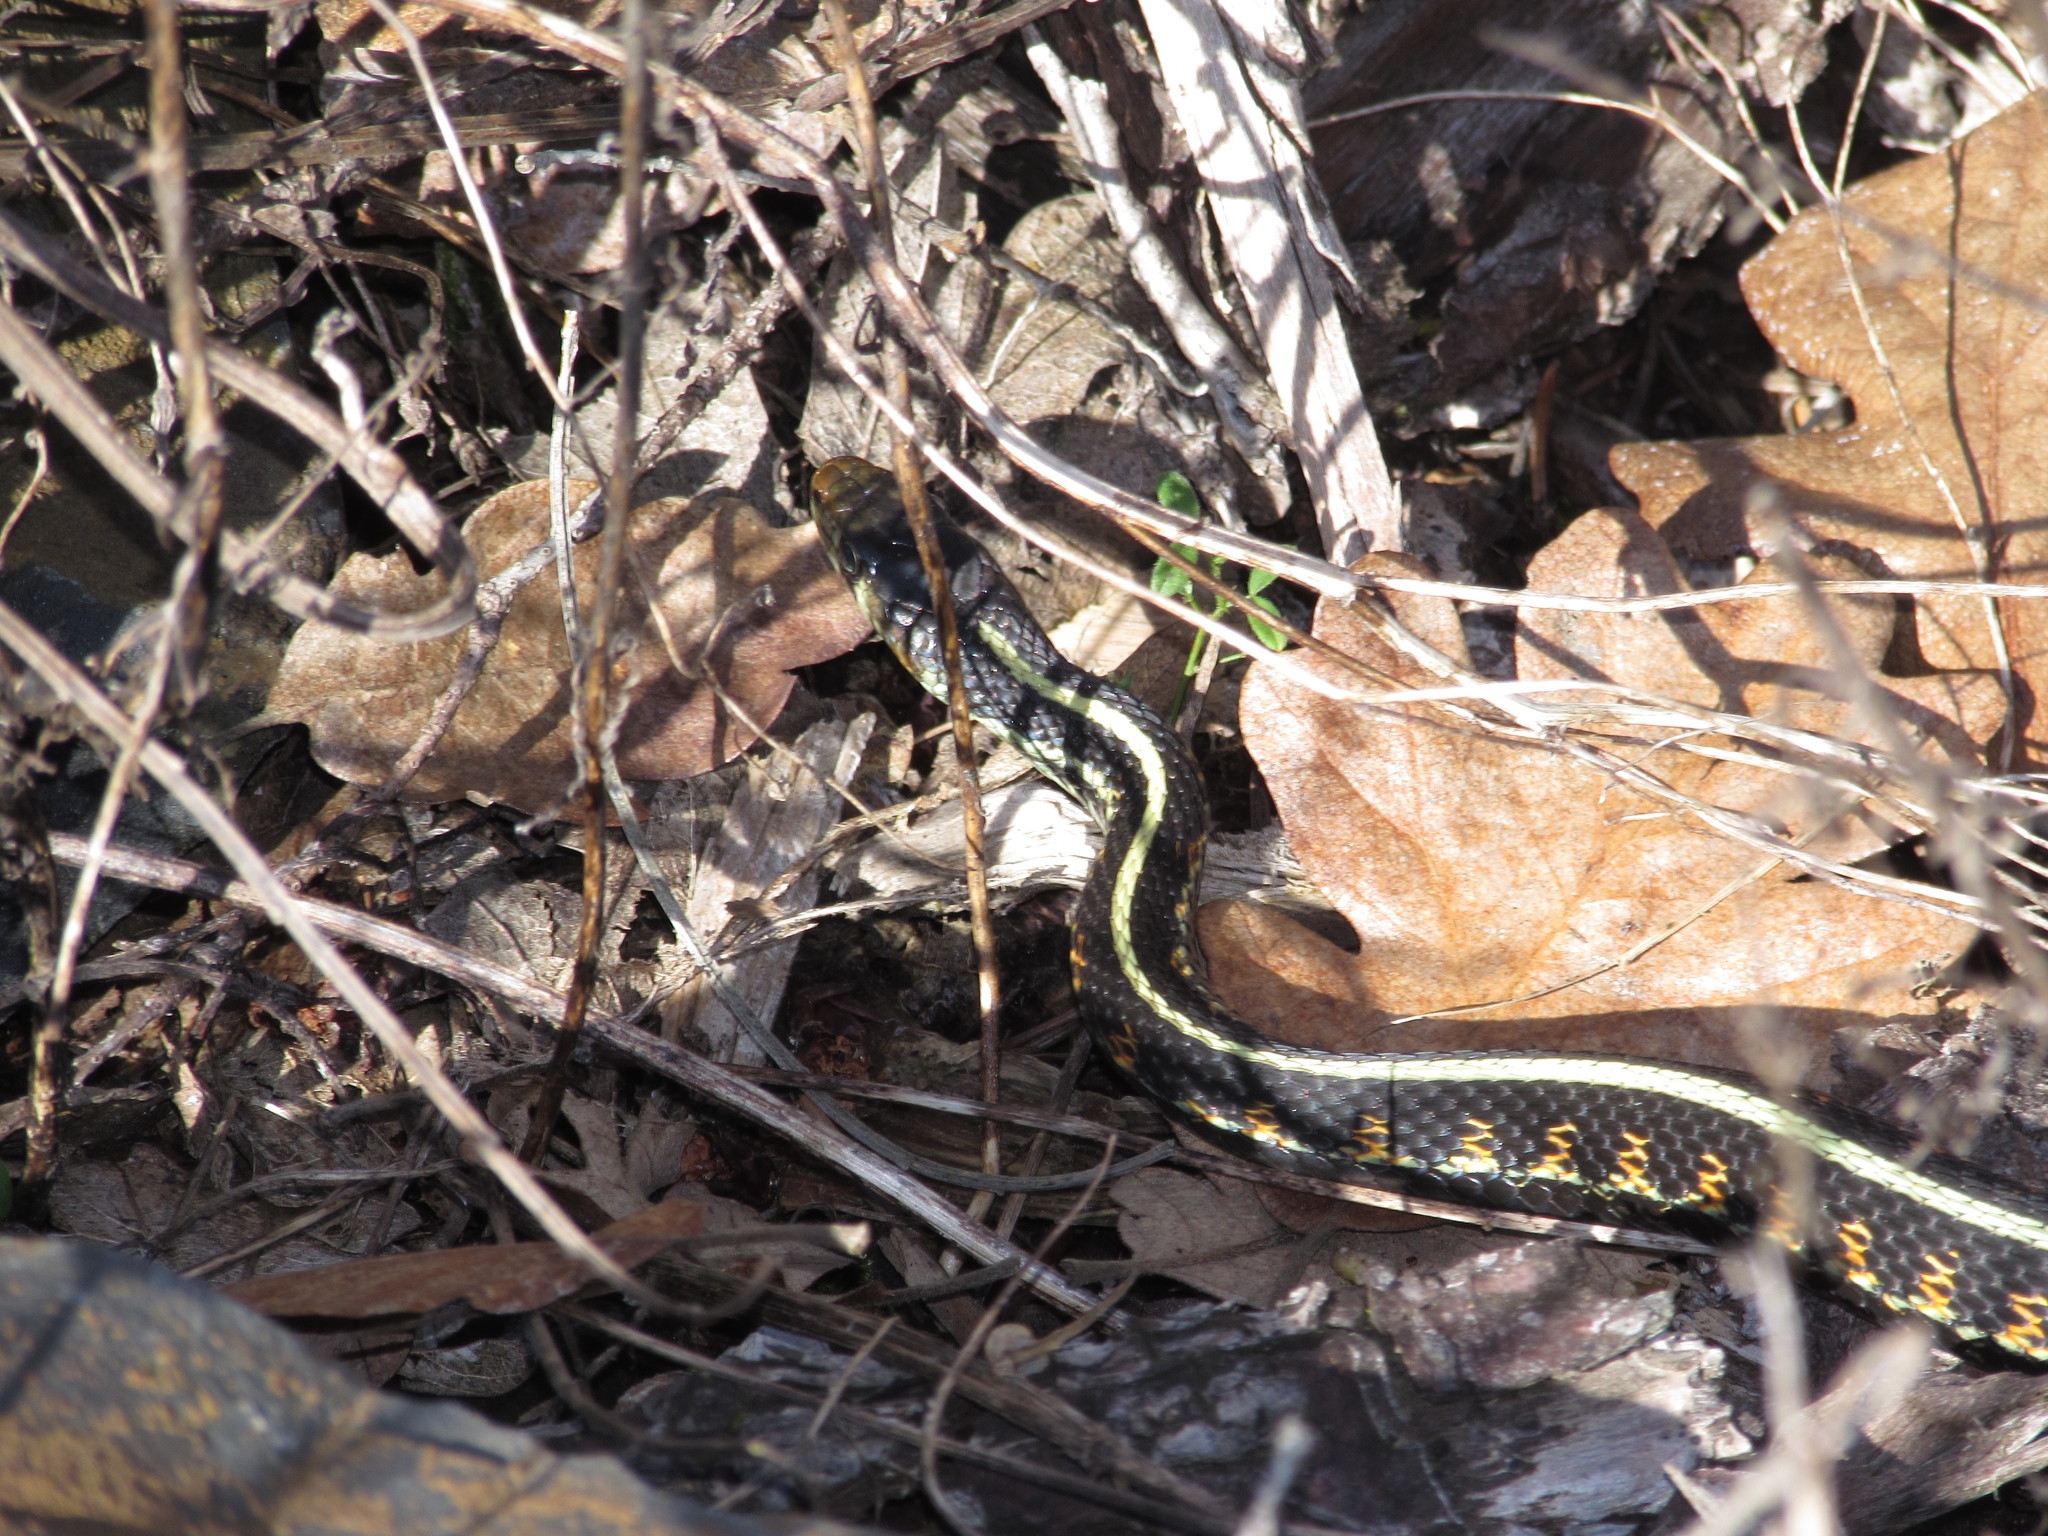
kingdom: Animalia
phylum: Chordata
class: Squamata
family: Colubridae
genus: Thamnophis
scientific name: Thamnophis sirtalis
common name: Common garter snake
